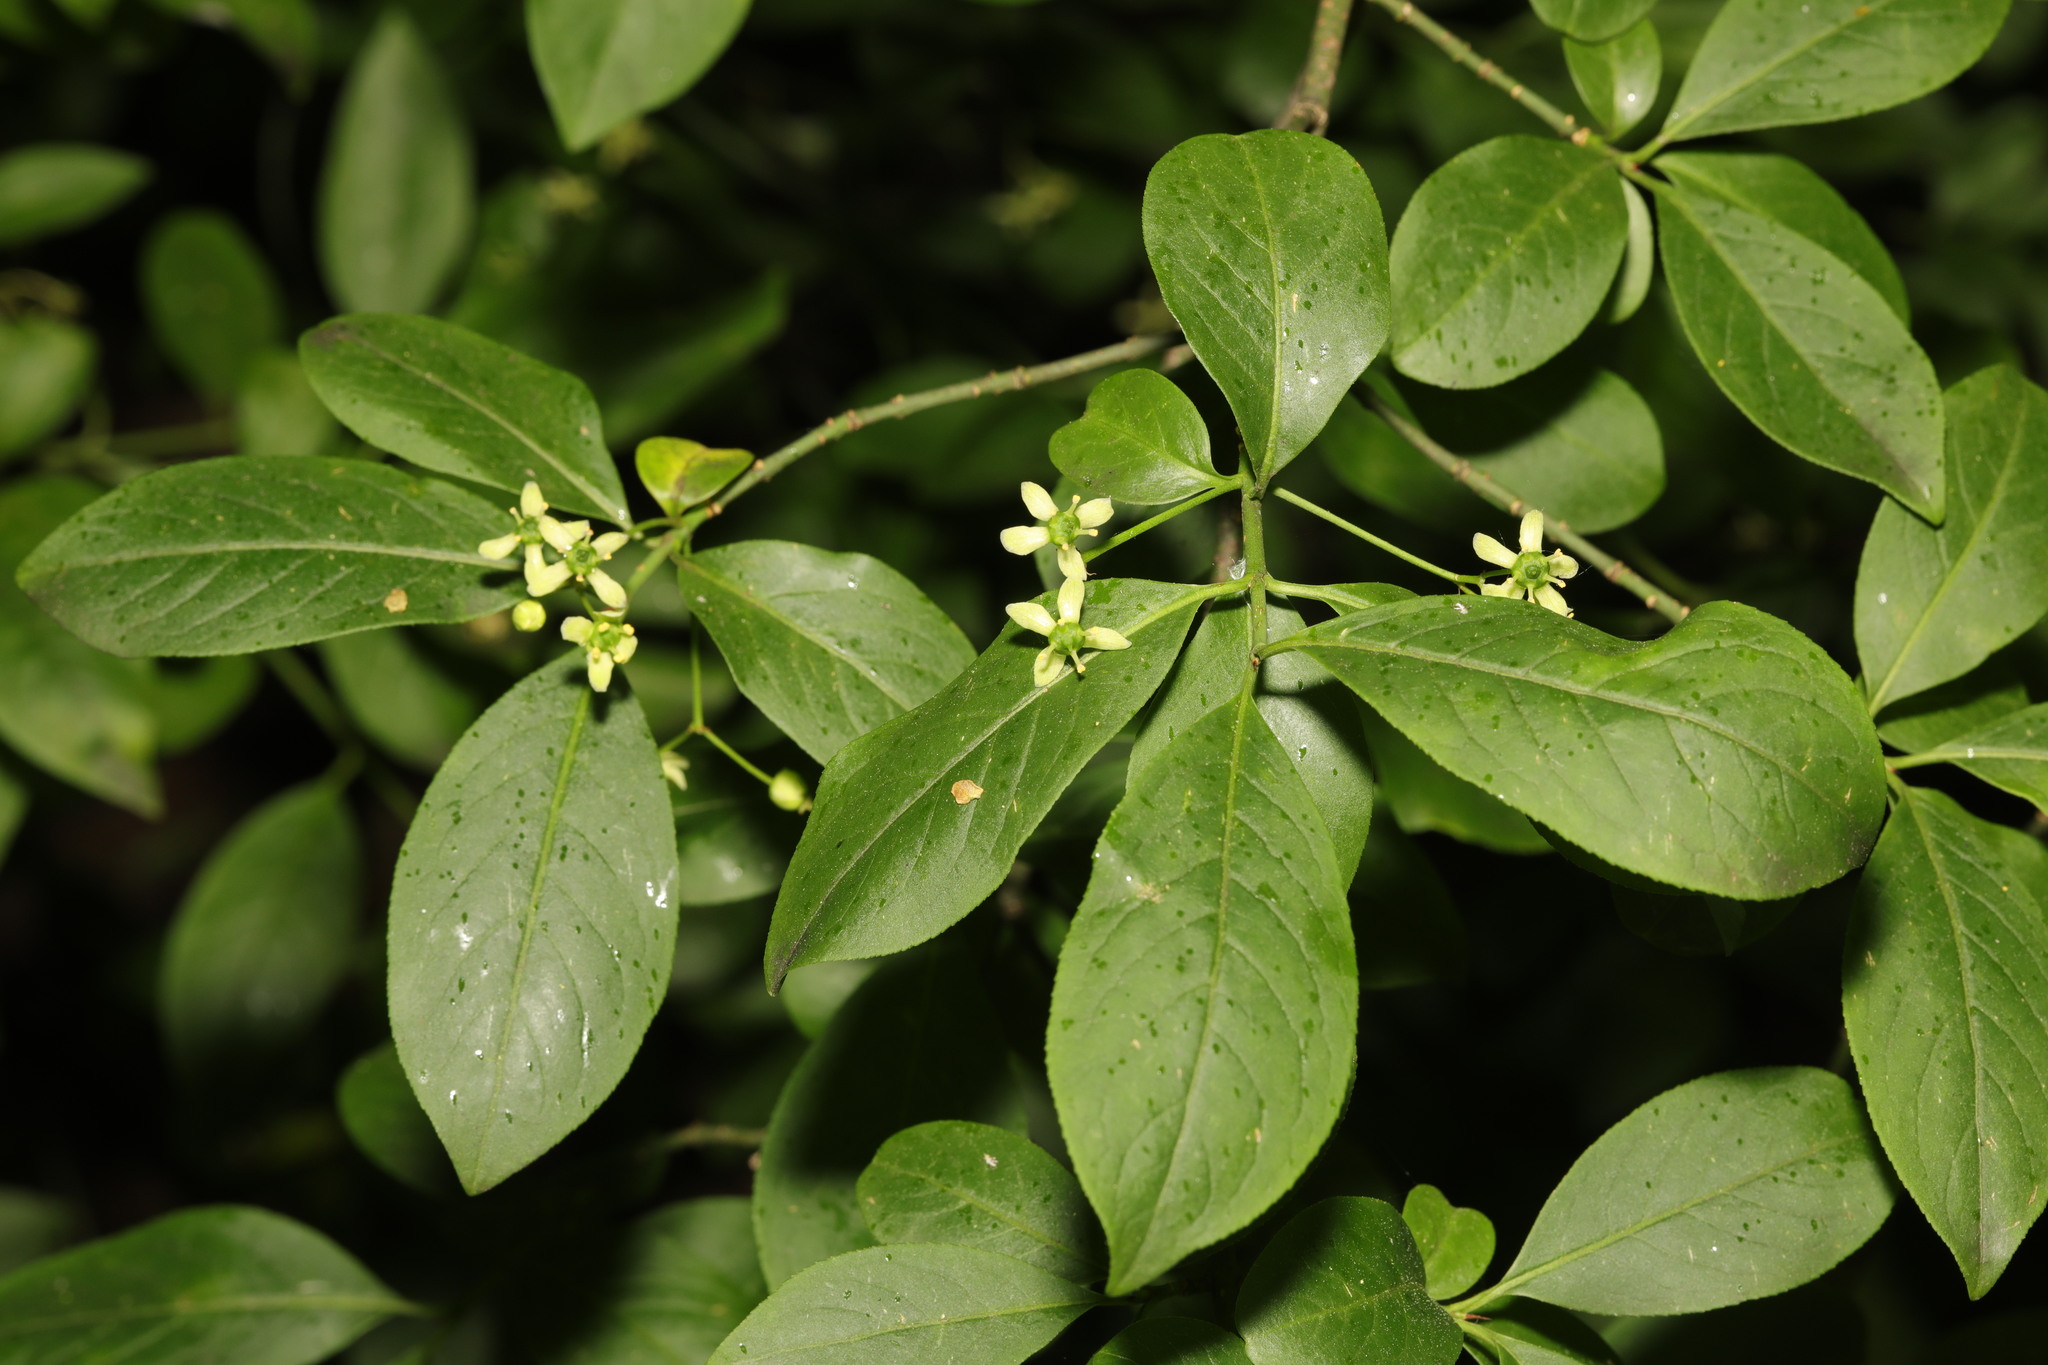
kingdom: Plantae
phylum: Tracheophyta
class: Magnoliopsida
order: Celastrales
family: Celastraceae
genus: Euonymus
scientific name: Euonymus europaeus
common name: Spindle
